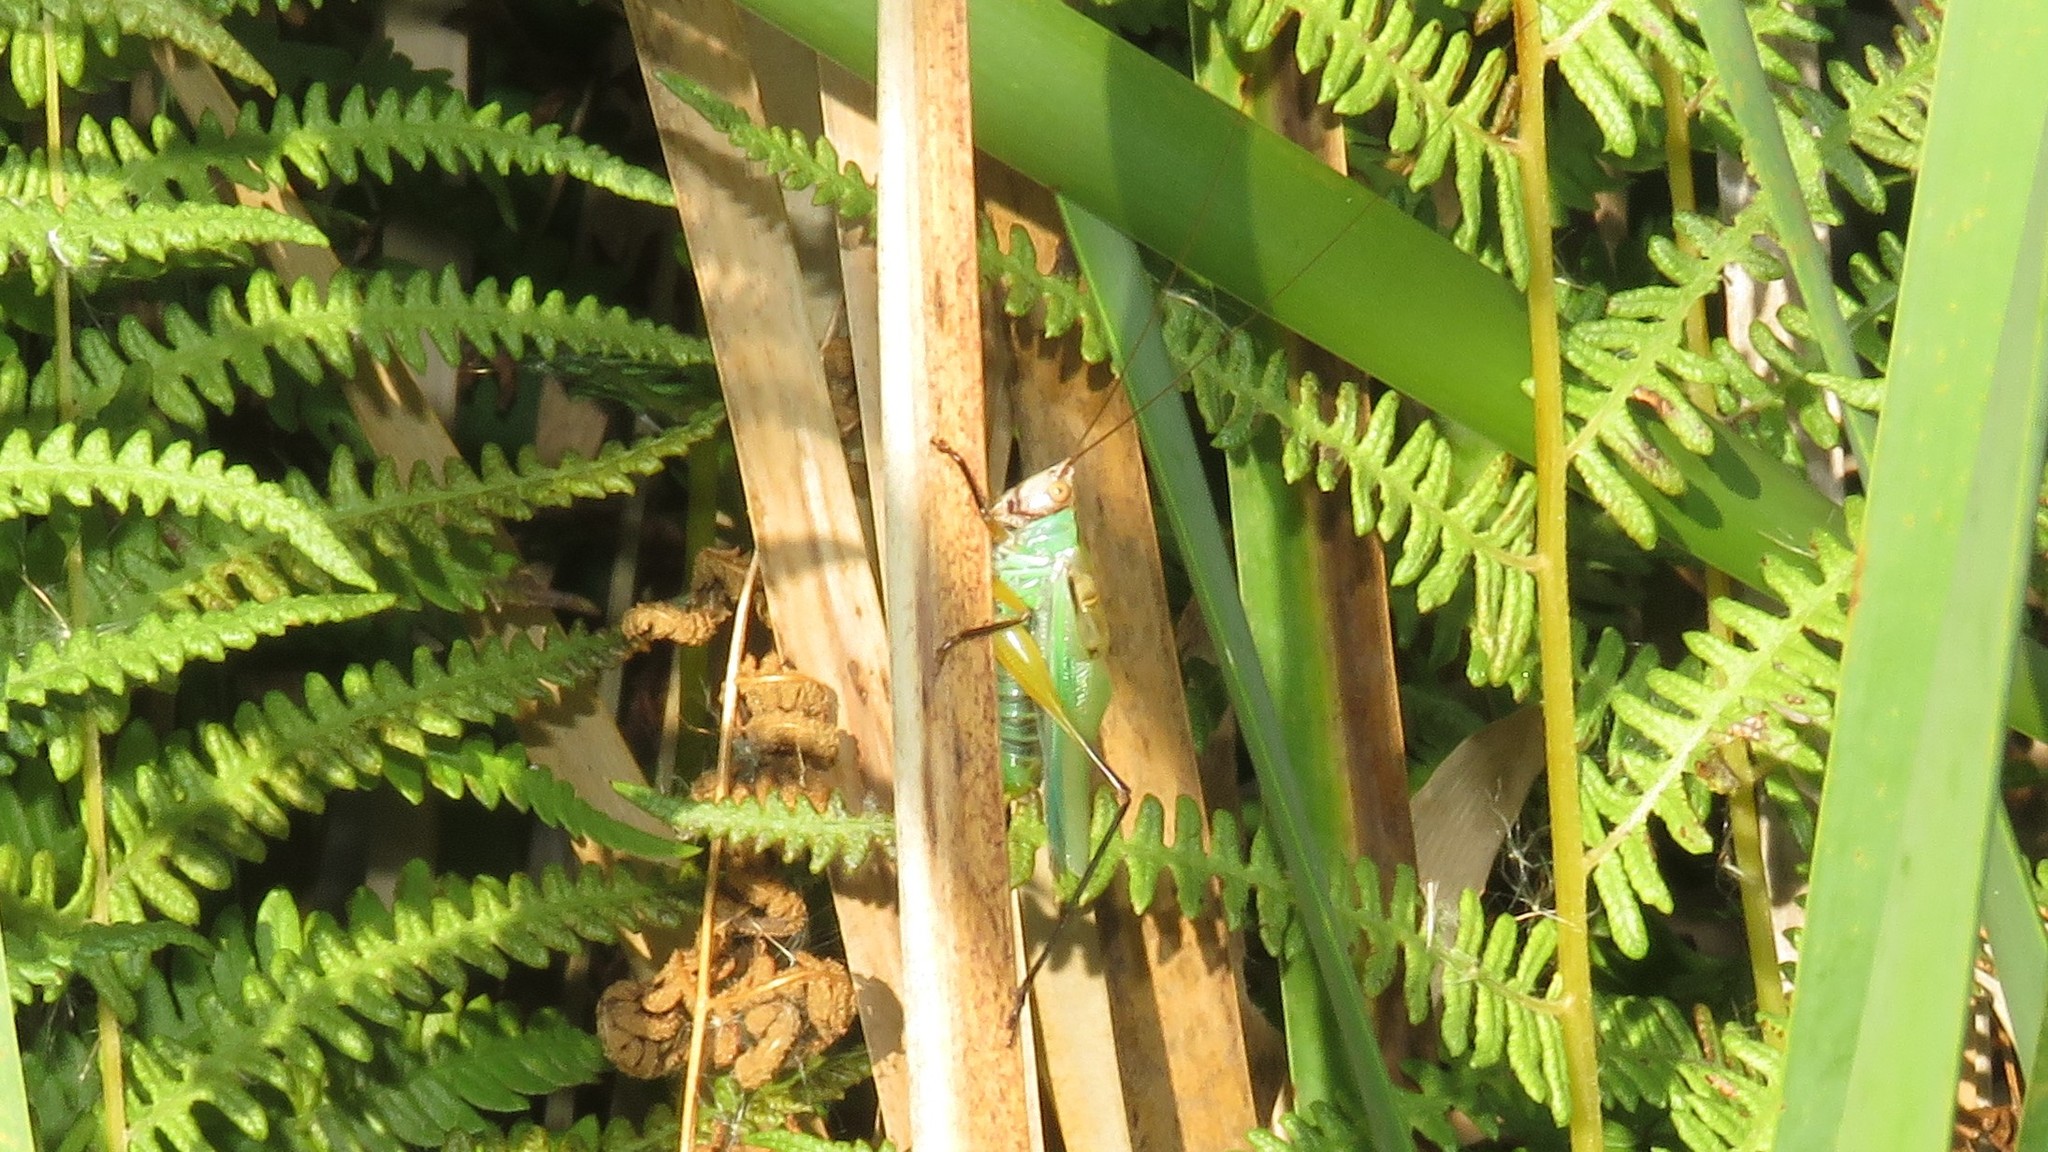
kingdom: Animalia
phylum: Arthropoda
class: Insecta
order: Orthoptera
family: Tettigoniidae
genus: Orchelimum
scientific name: Orchelimum nigripes
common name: Black-legged meadow katydid
